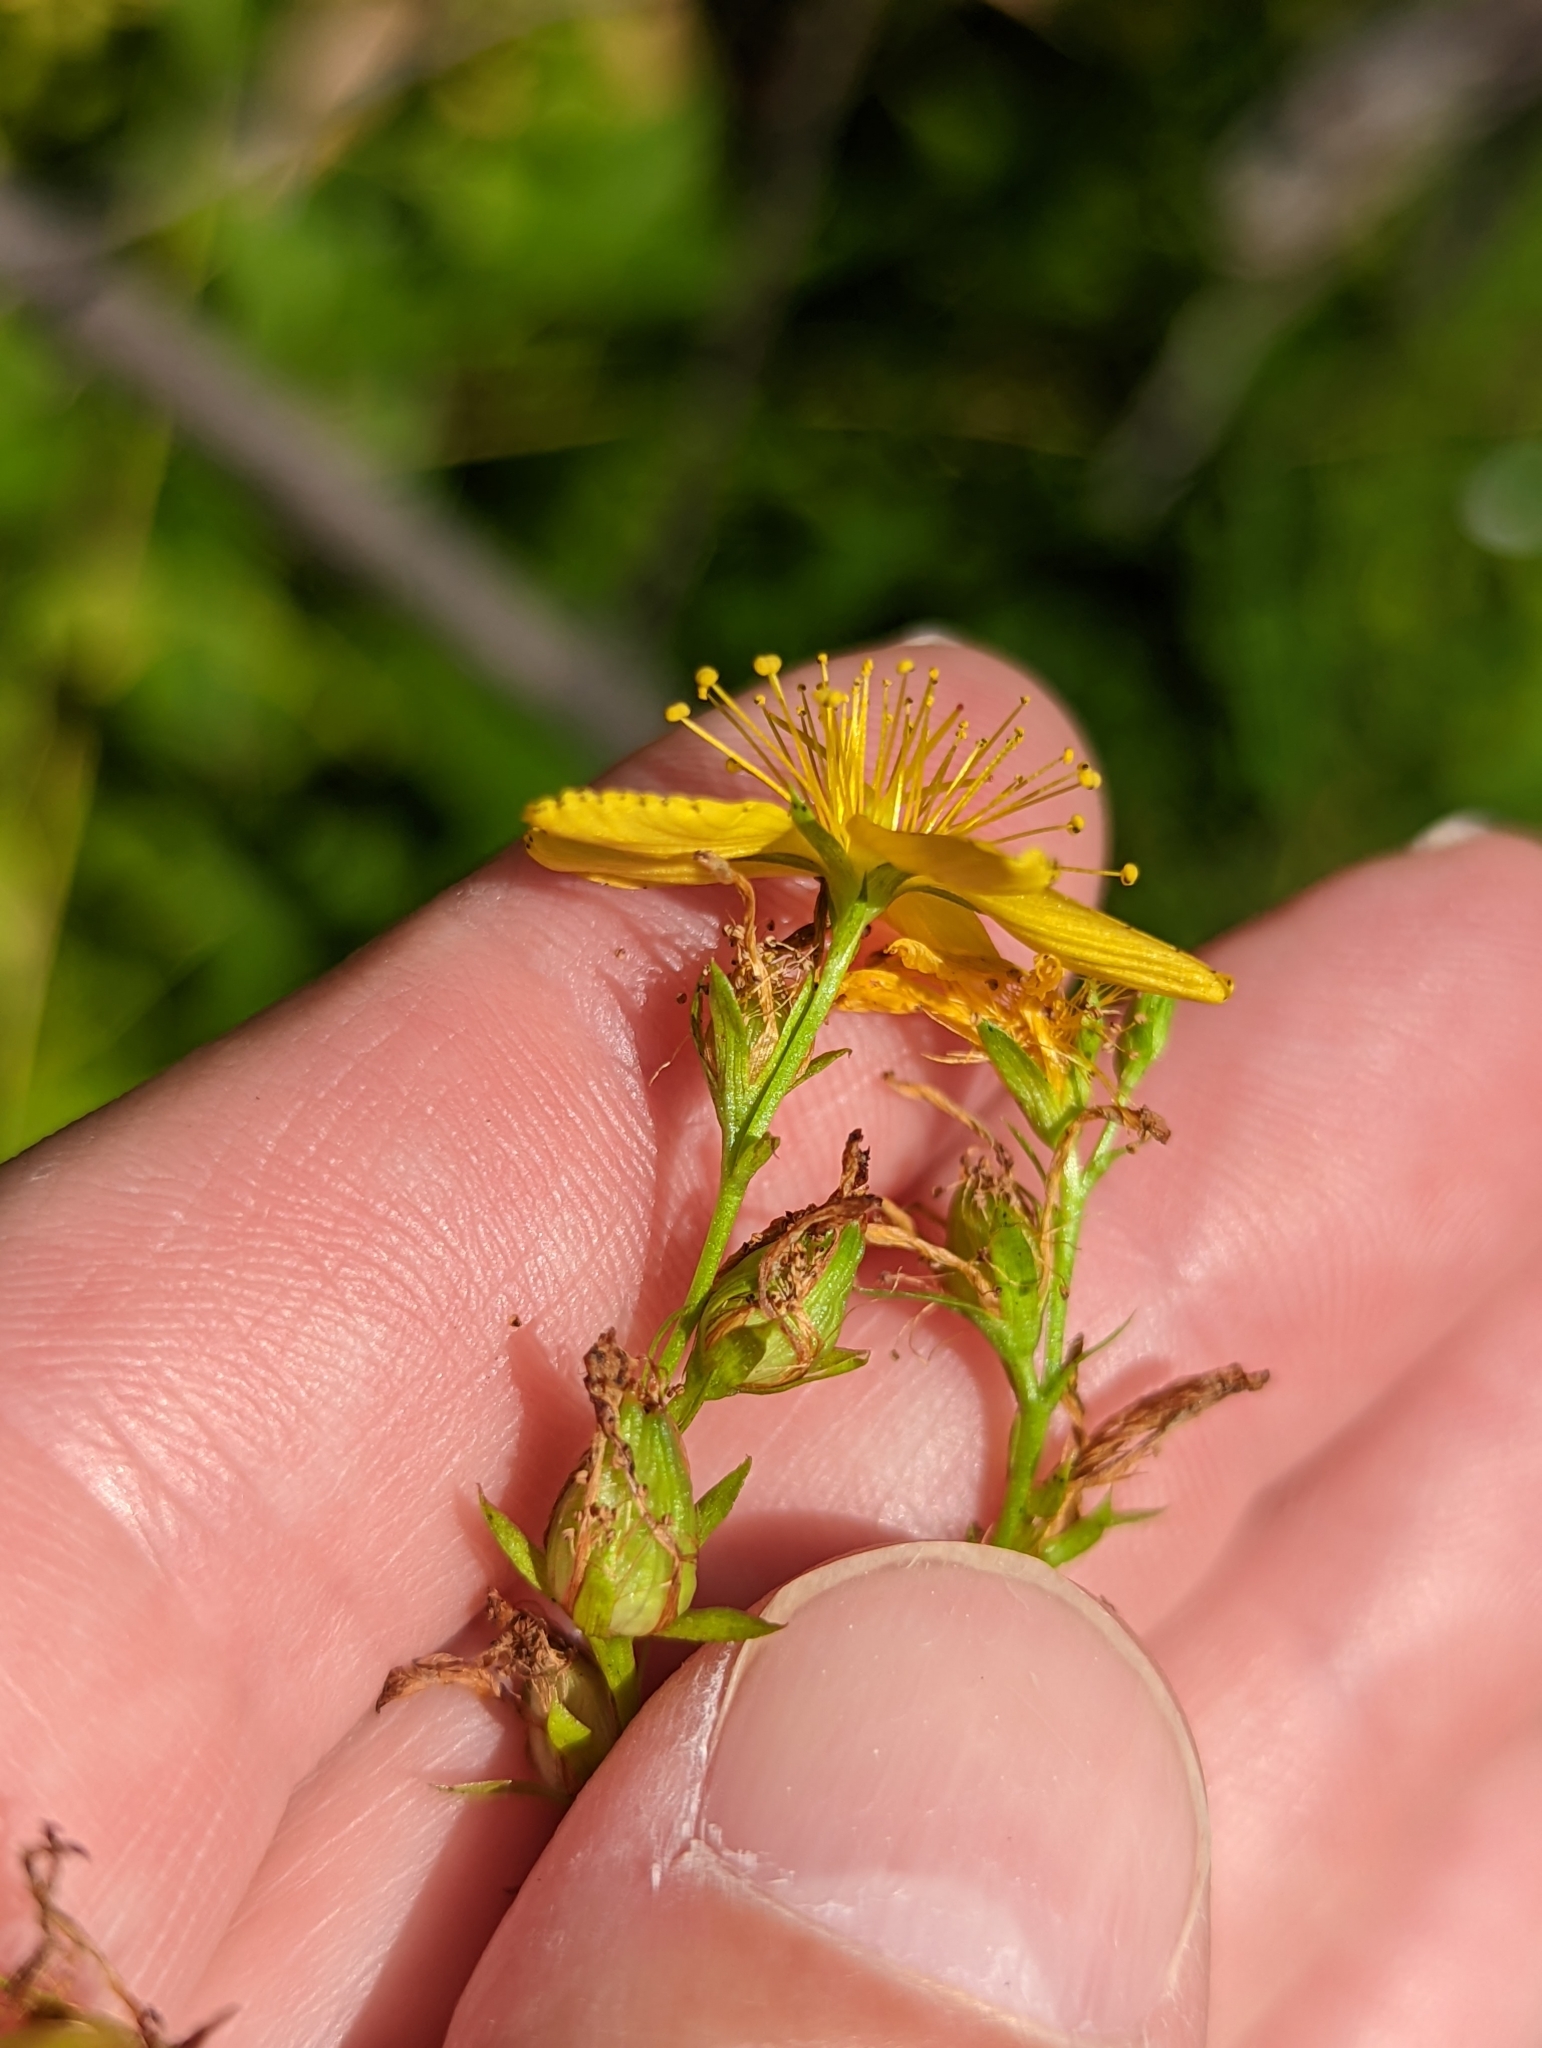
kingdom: Plantae
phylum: Tracheophyta
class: Magnoliopsida
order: Malpighiales
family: Hypericaceae
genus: Hypericum
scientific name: Hypericum perforatum
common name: Common st. johnswort
